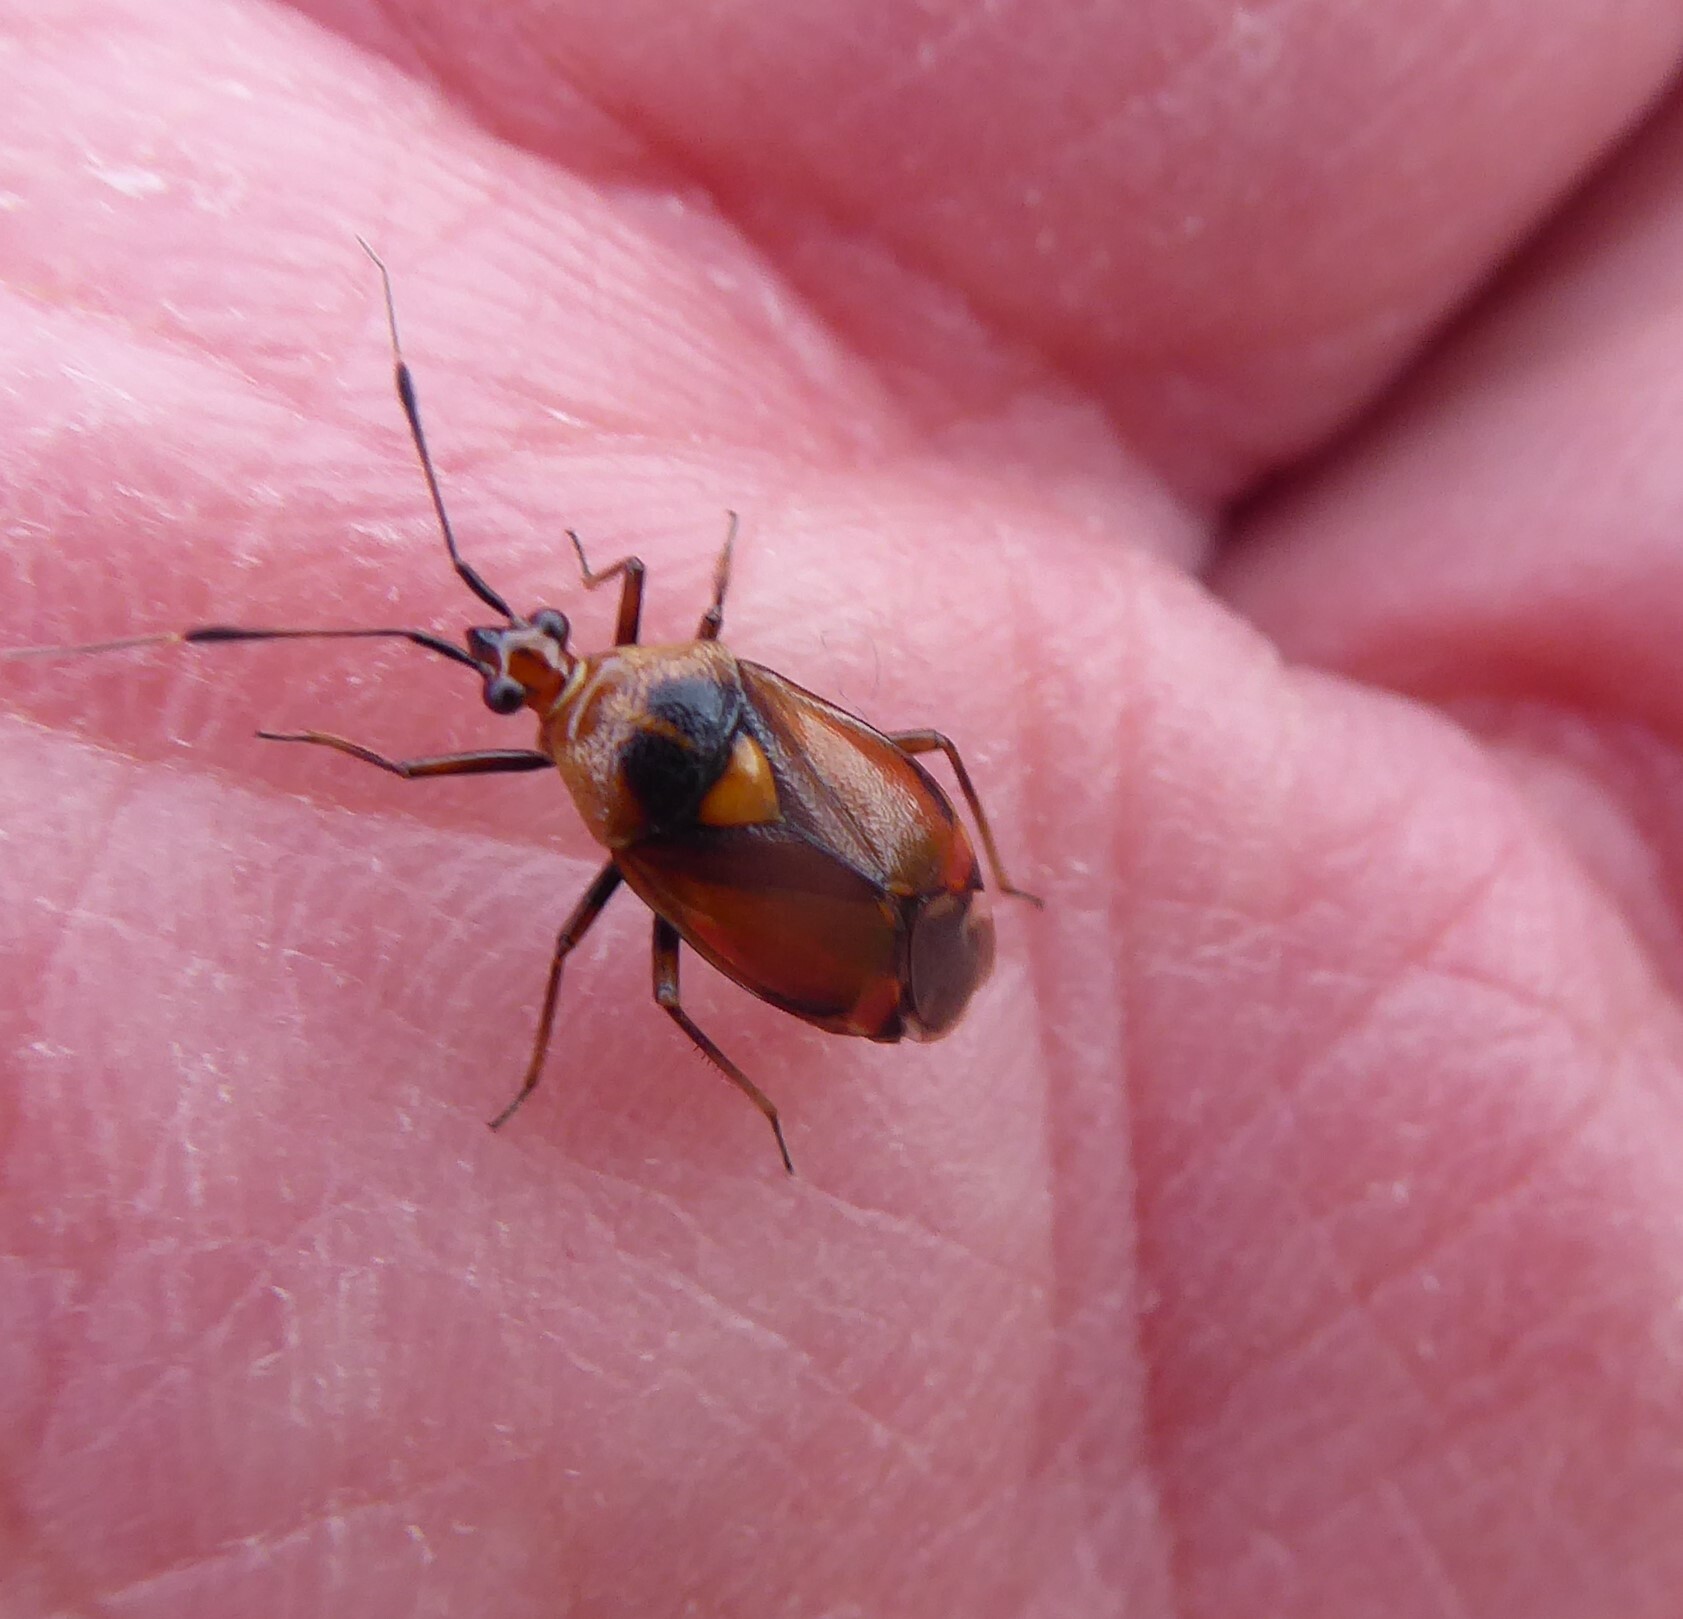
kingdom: Animalia
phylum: Arthropoda
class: Insecta
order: Hemiptera
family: Miridae
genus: Deraeocoris
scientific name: Deraeocoris ruber
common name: Plant bug
